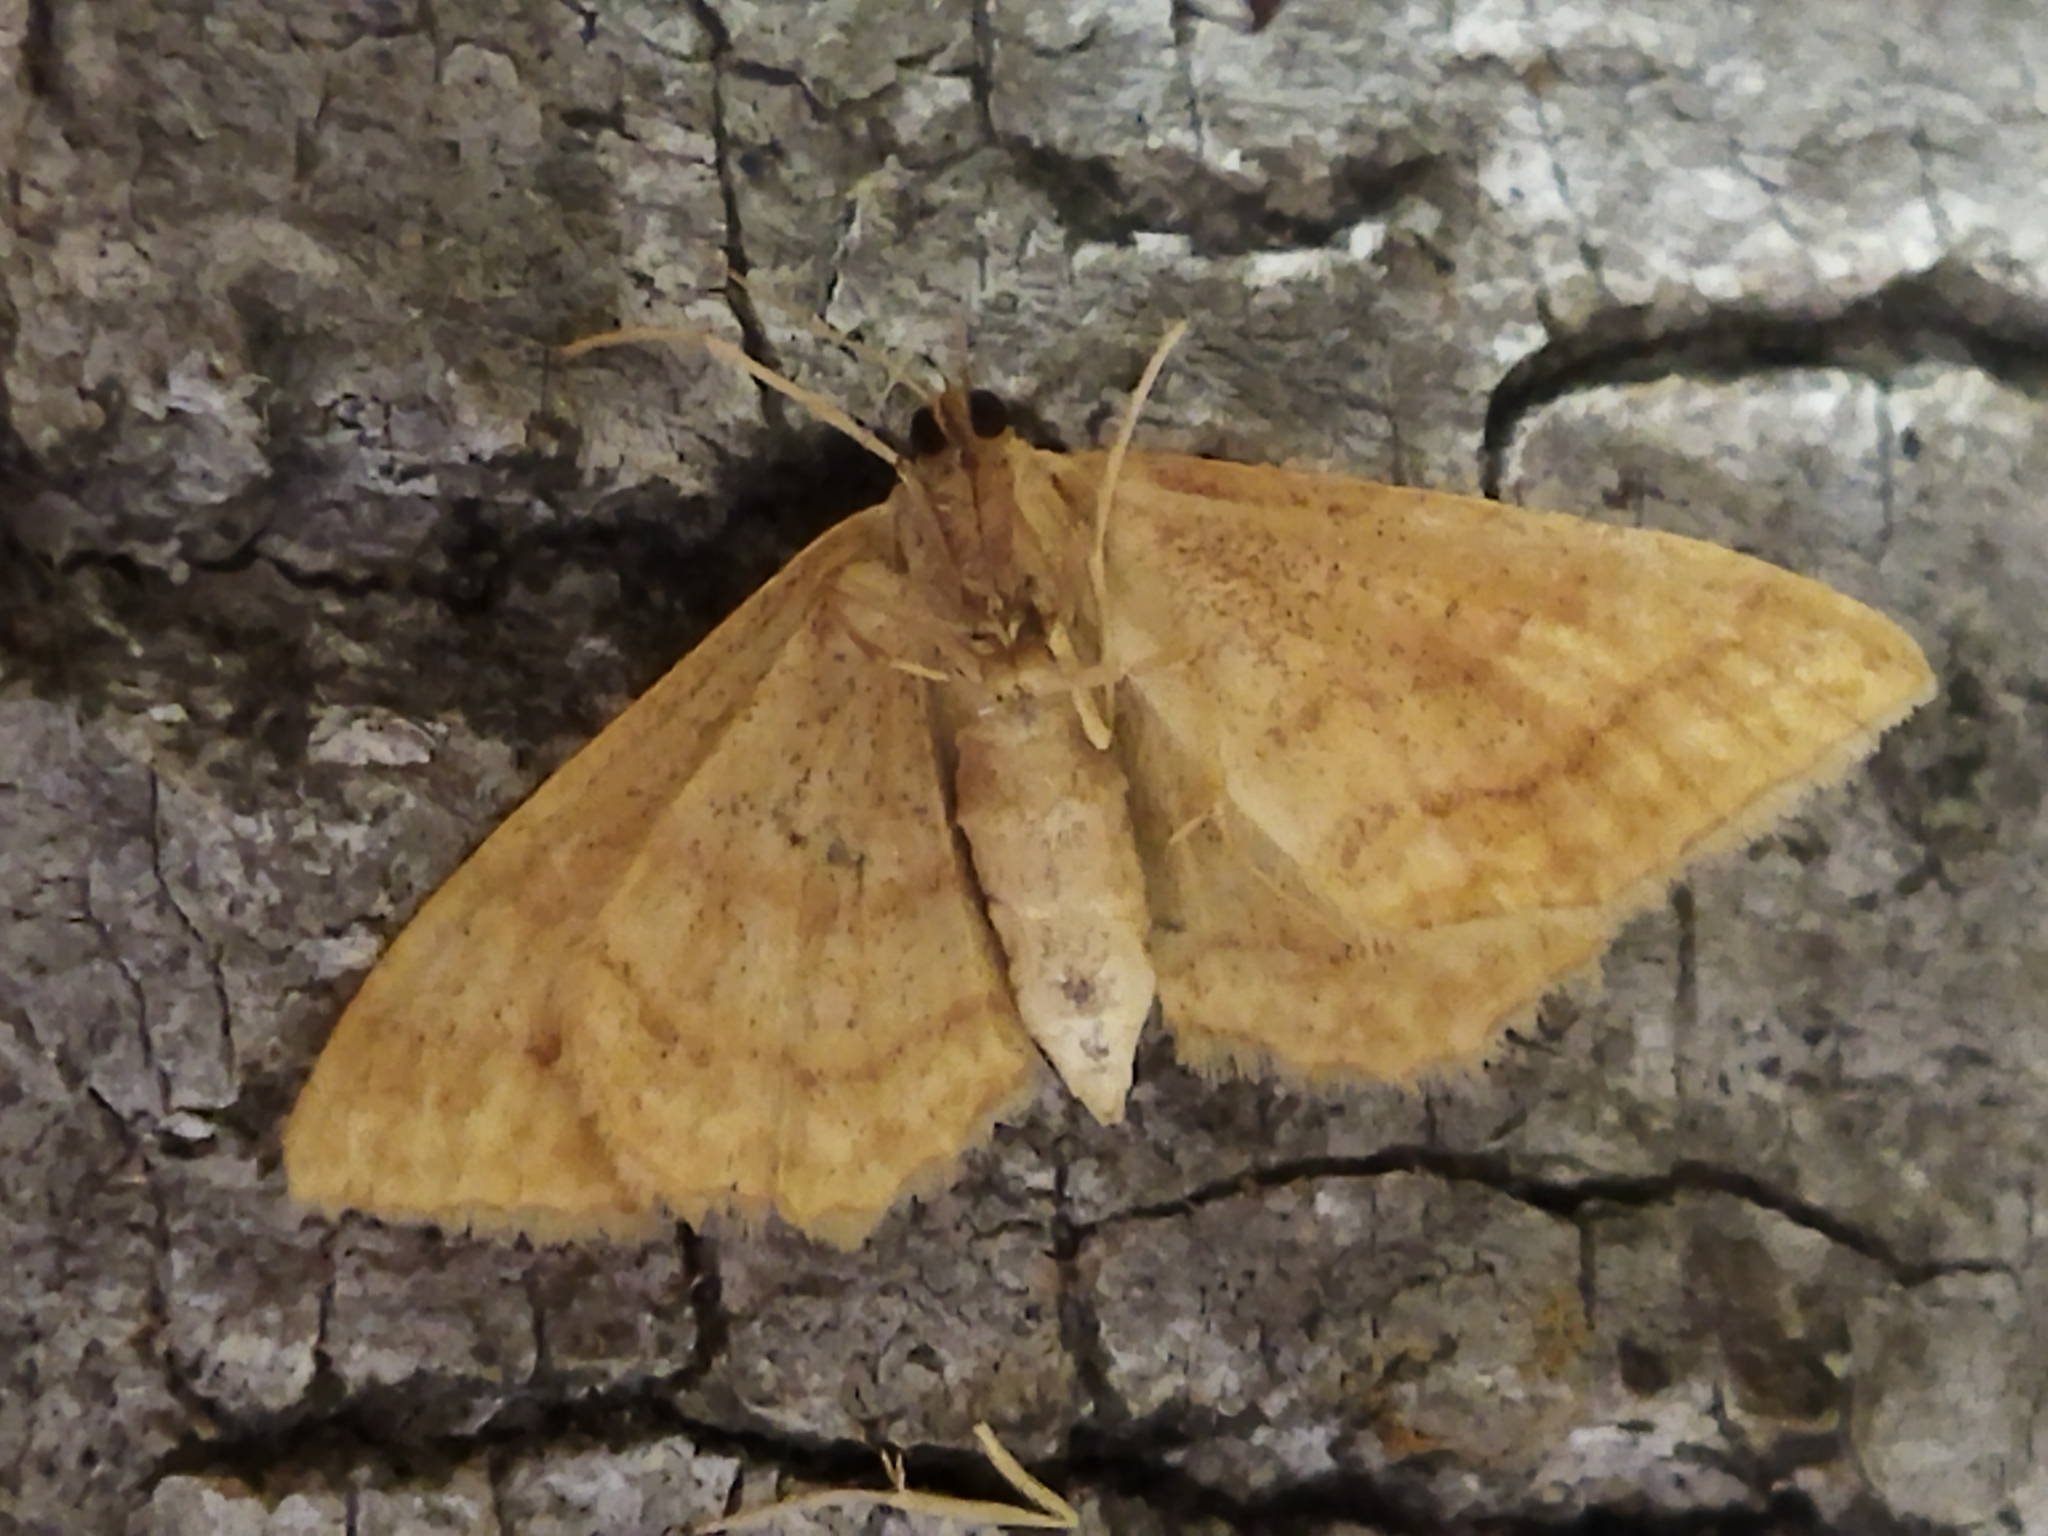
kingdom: Animalia
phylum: Arthropoda
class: Insecta
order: Lepidoptera
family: Geometridae
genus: Idaea
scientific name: Idaea rufaria
